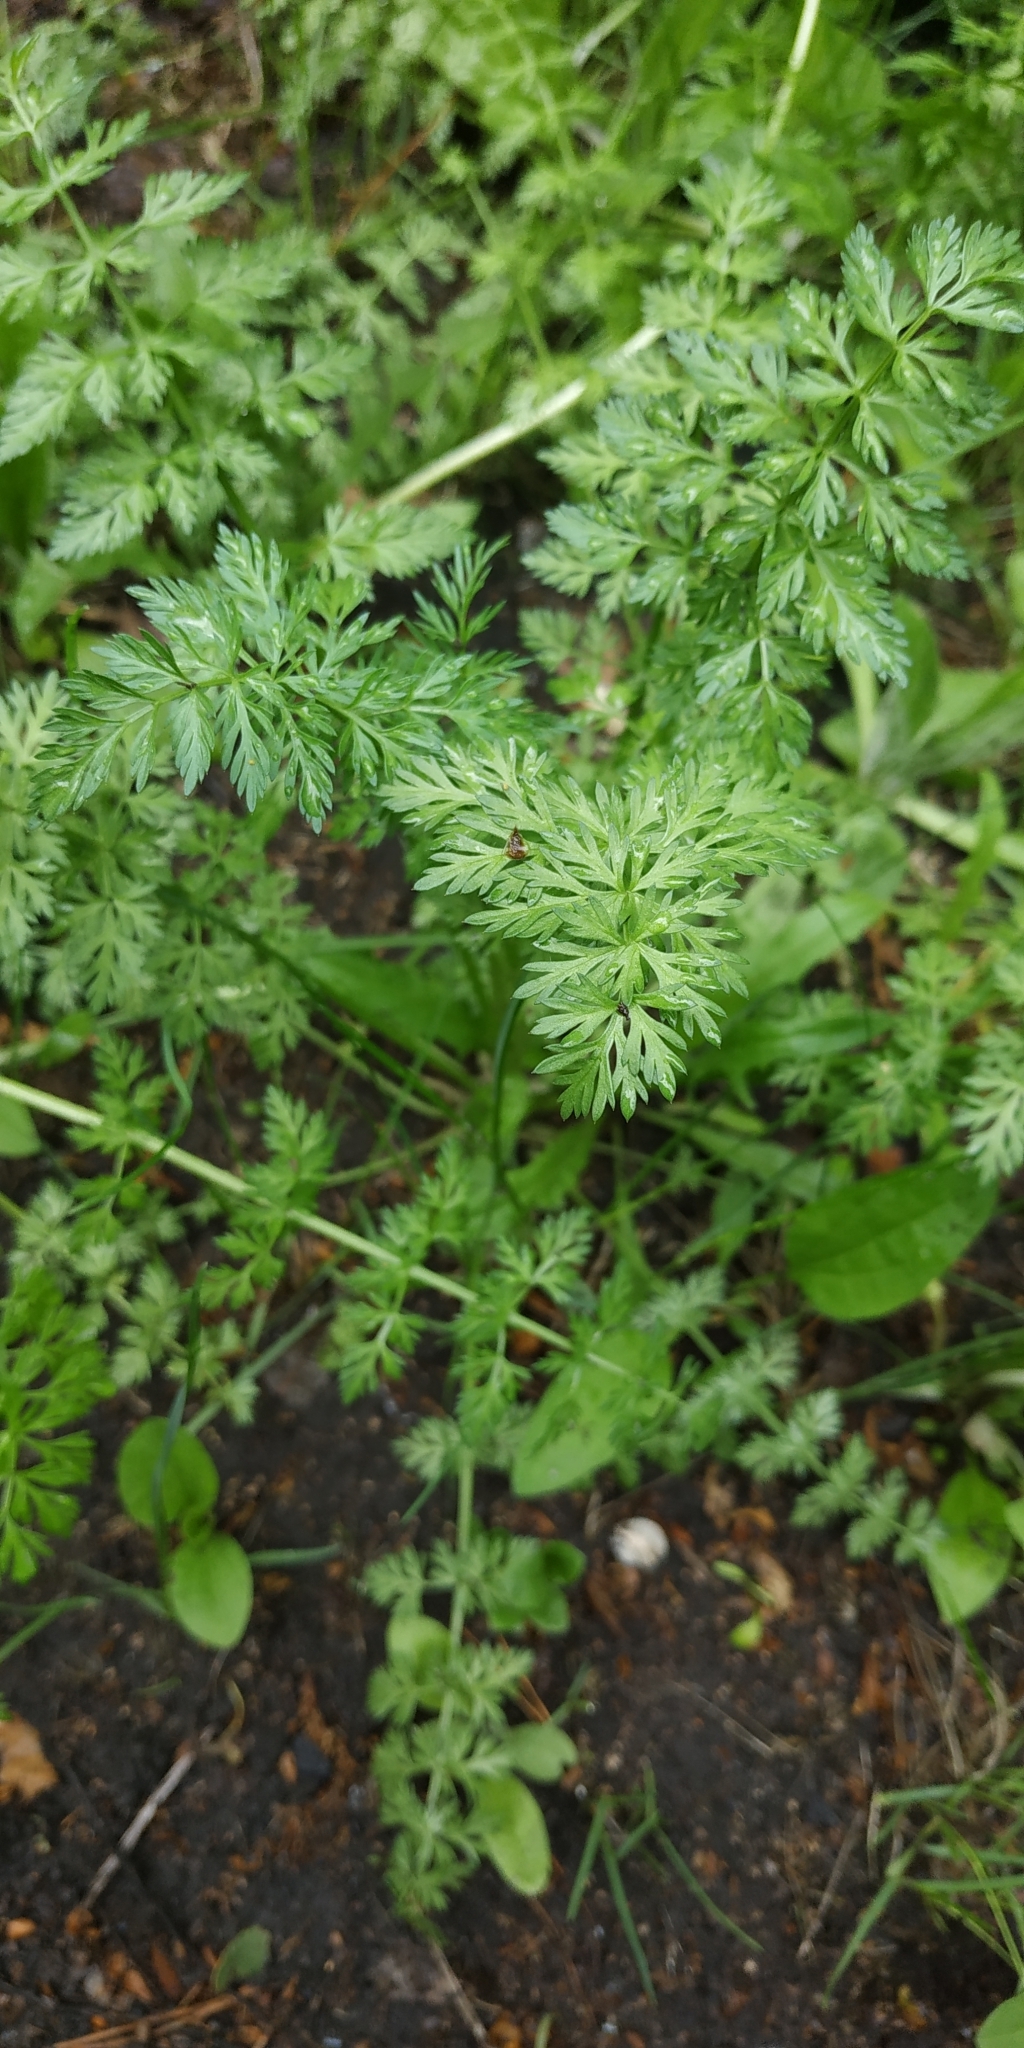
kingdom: Plantae
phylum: Tracheophyta
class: Magnoliopsida
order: Apiales
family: Apiaceae
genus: Carum
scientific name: Carum carvi
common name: Caraway
